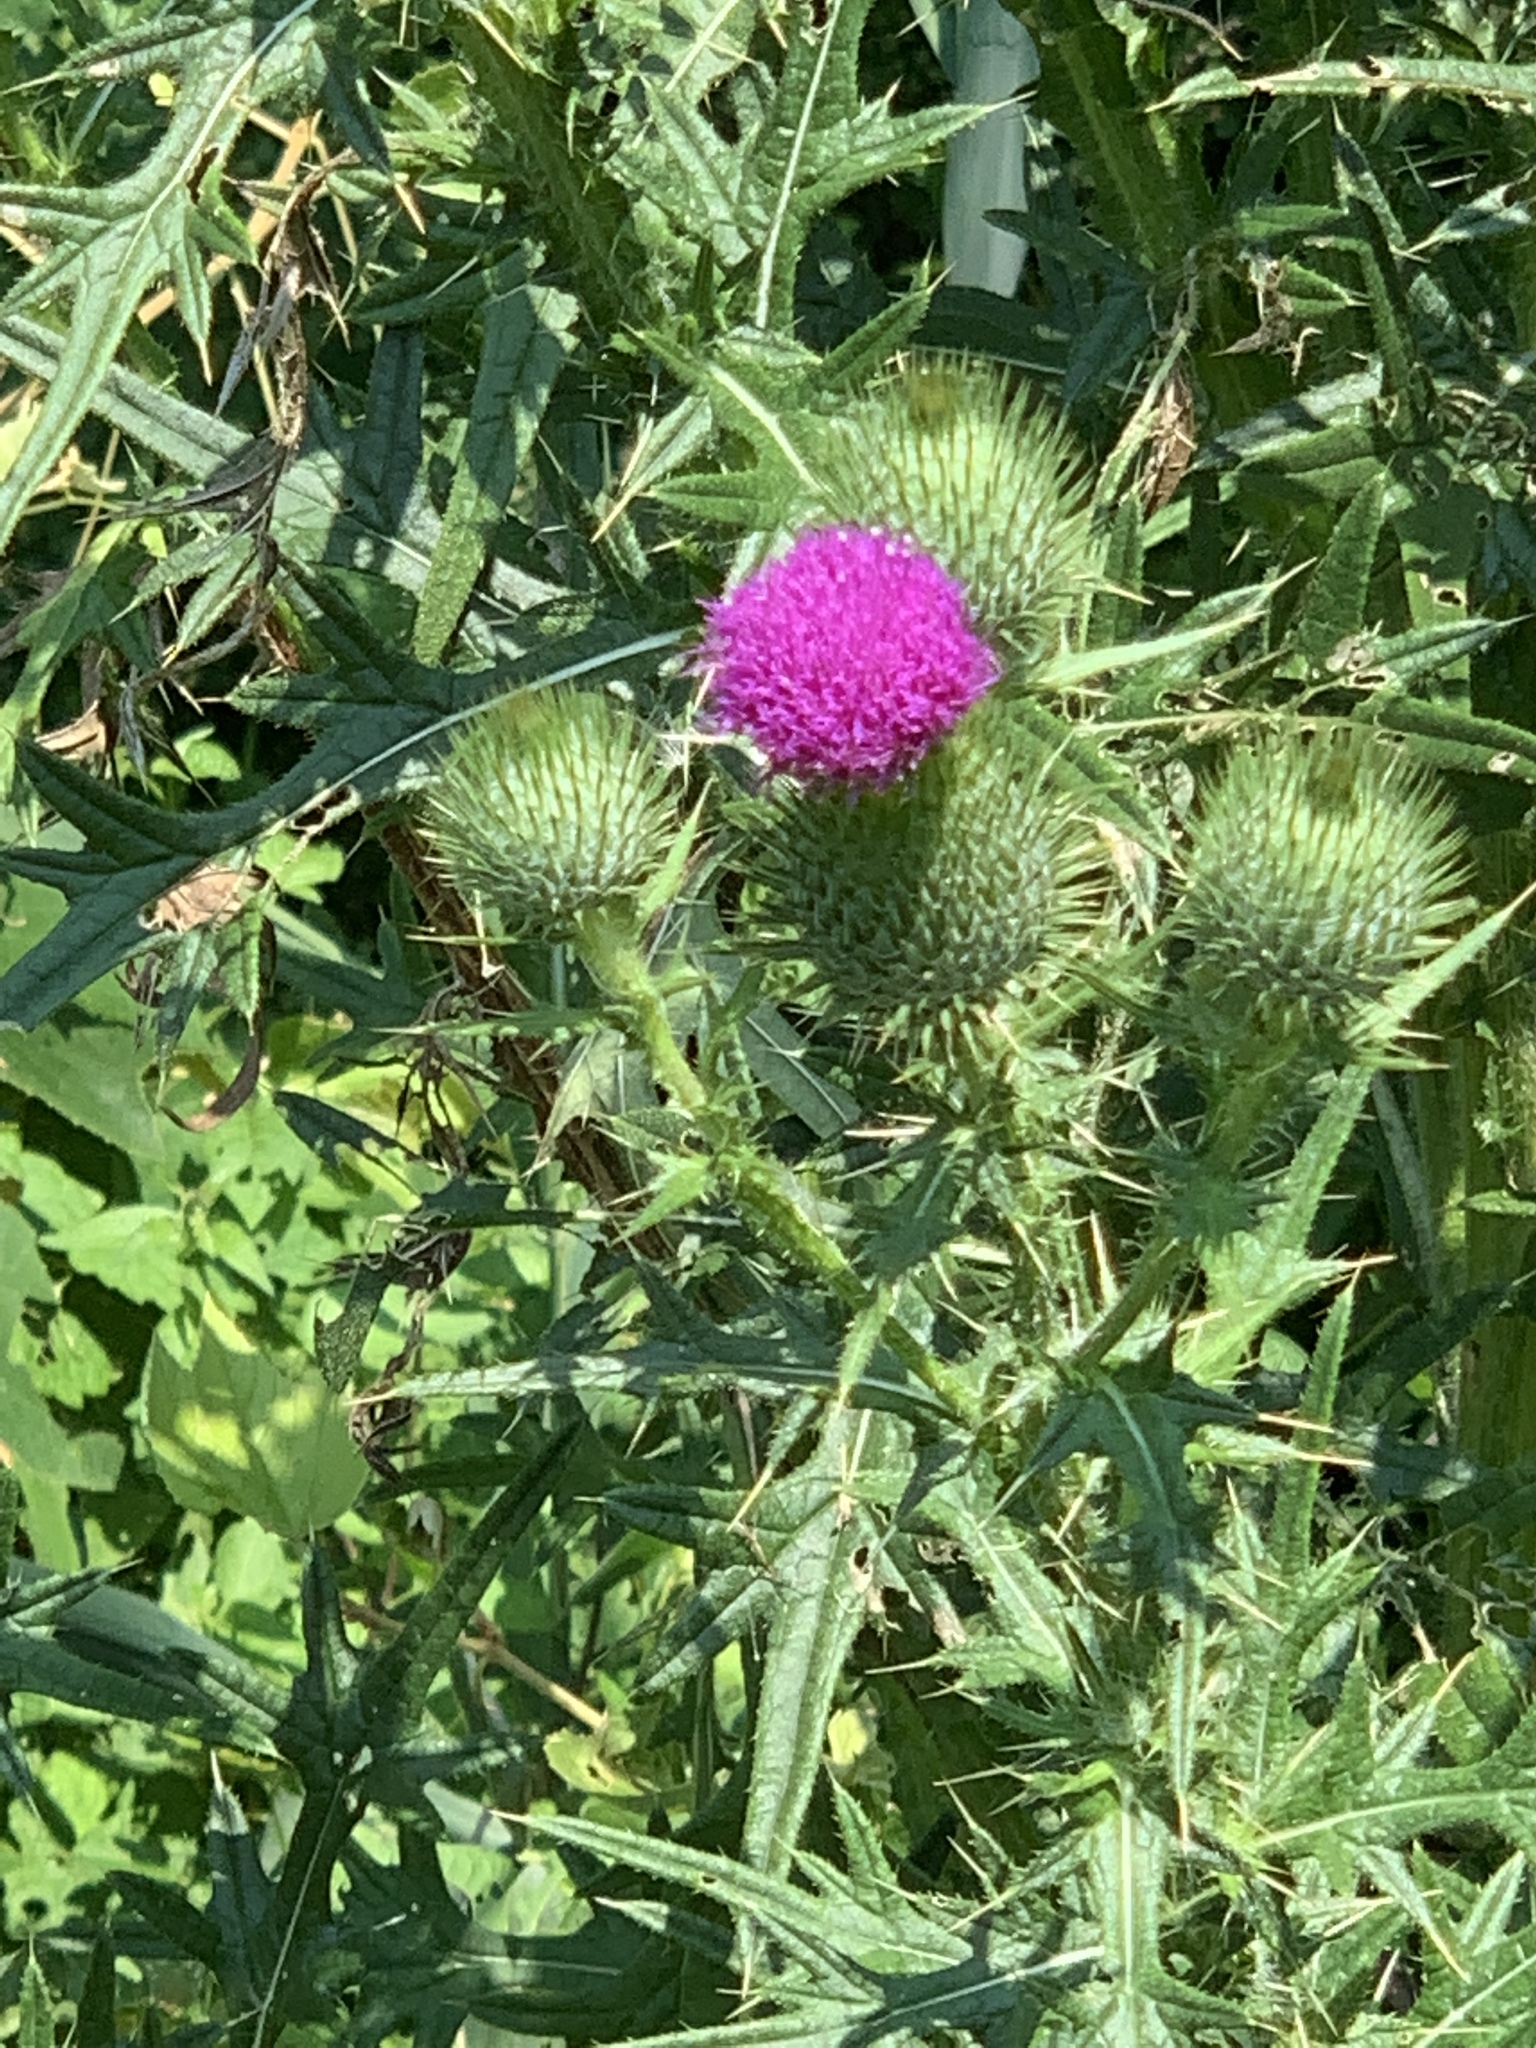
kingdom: Plantae
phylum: Tracheophyta
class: Magnoliopsida
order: Asterales
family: Asteraceae
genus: Cirsium
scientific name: Cirsium vulgare
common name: Bull thistle
